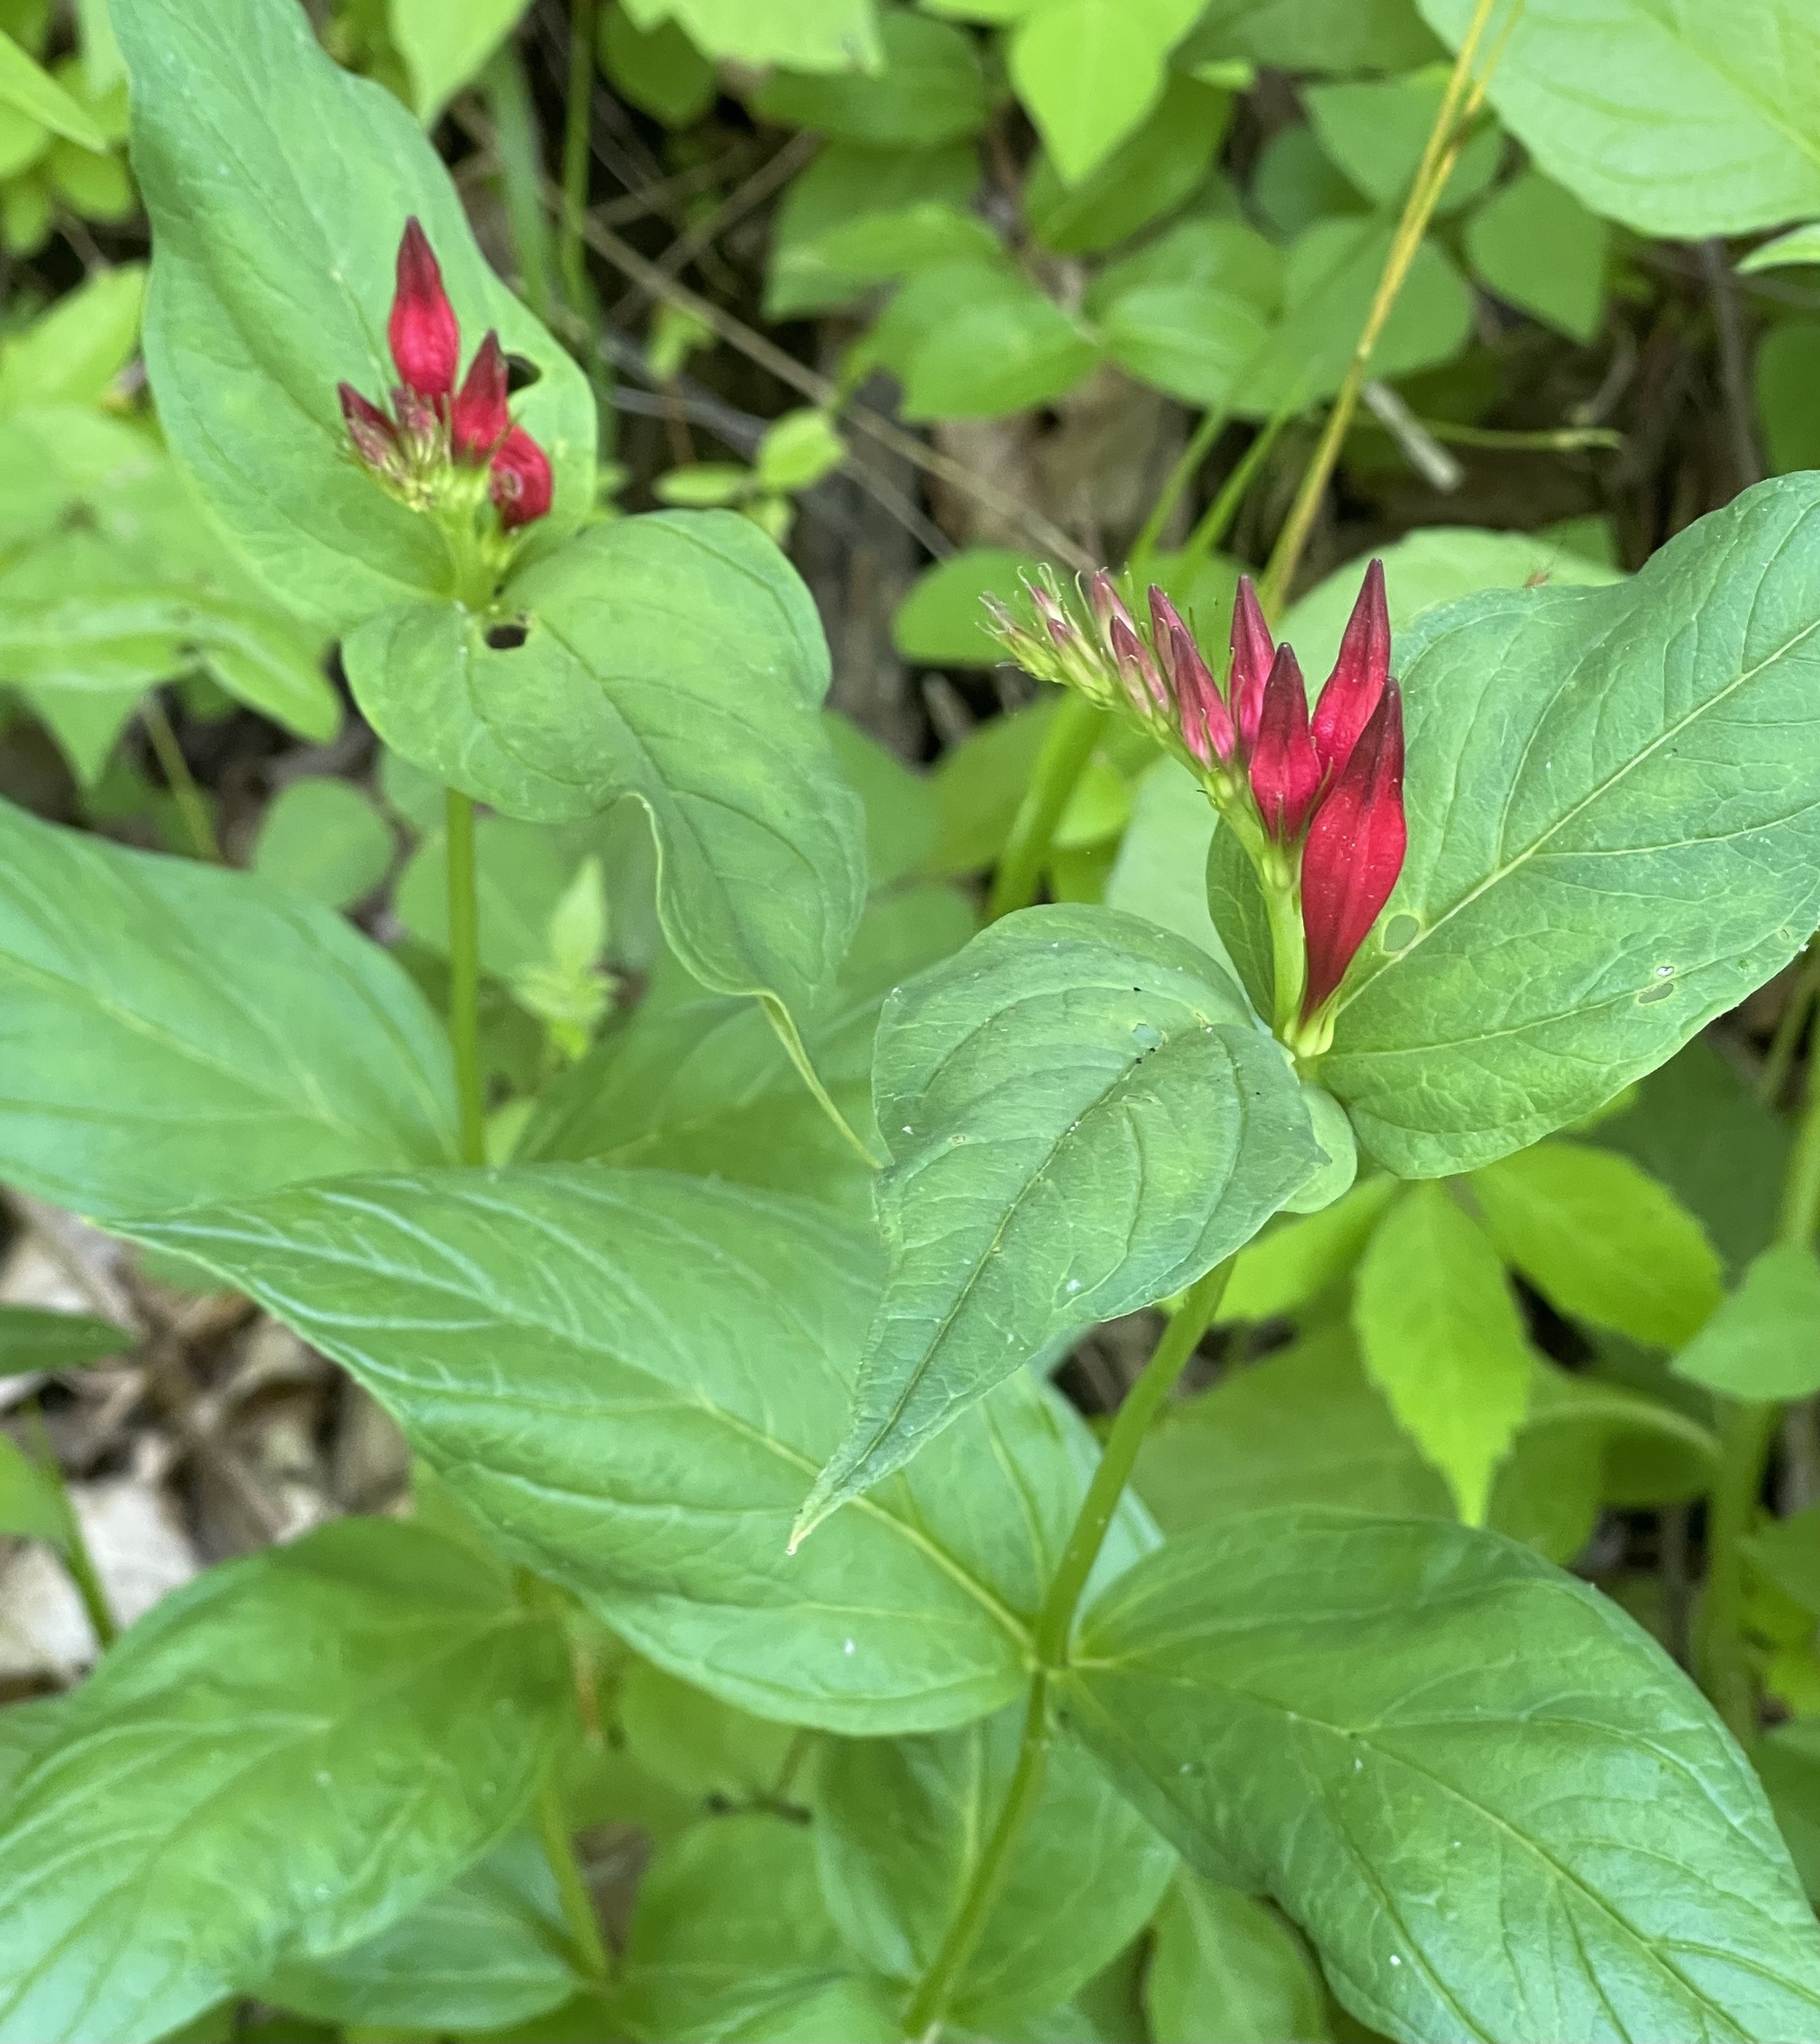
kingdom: Plantae
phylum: Tracheophyta
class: Magnoliopsida
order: Gentianales
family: Loganiaceae
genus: Spigelia
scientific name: Spigelia marilandica
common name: Indian-pink
